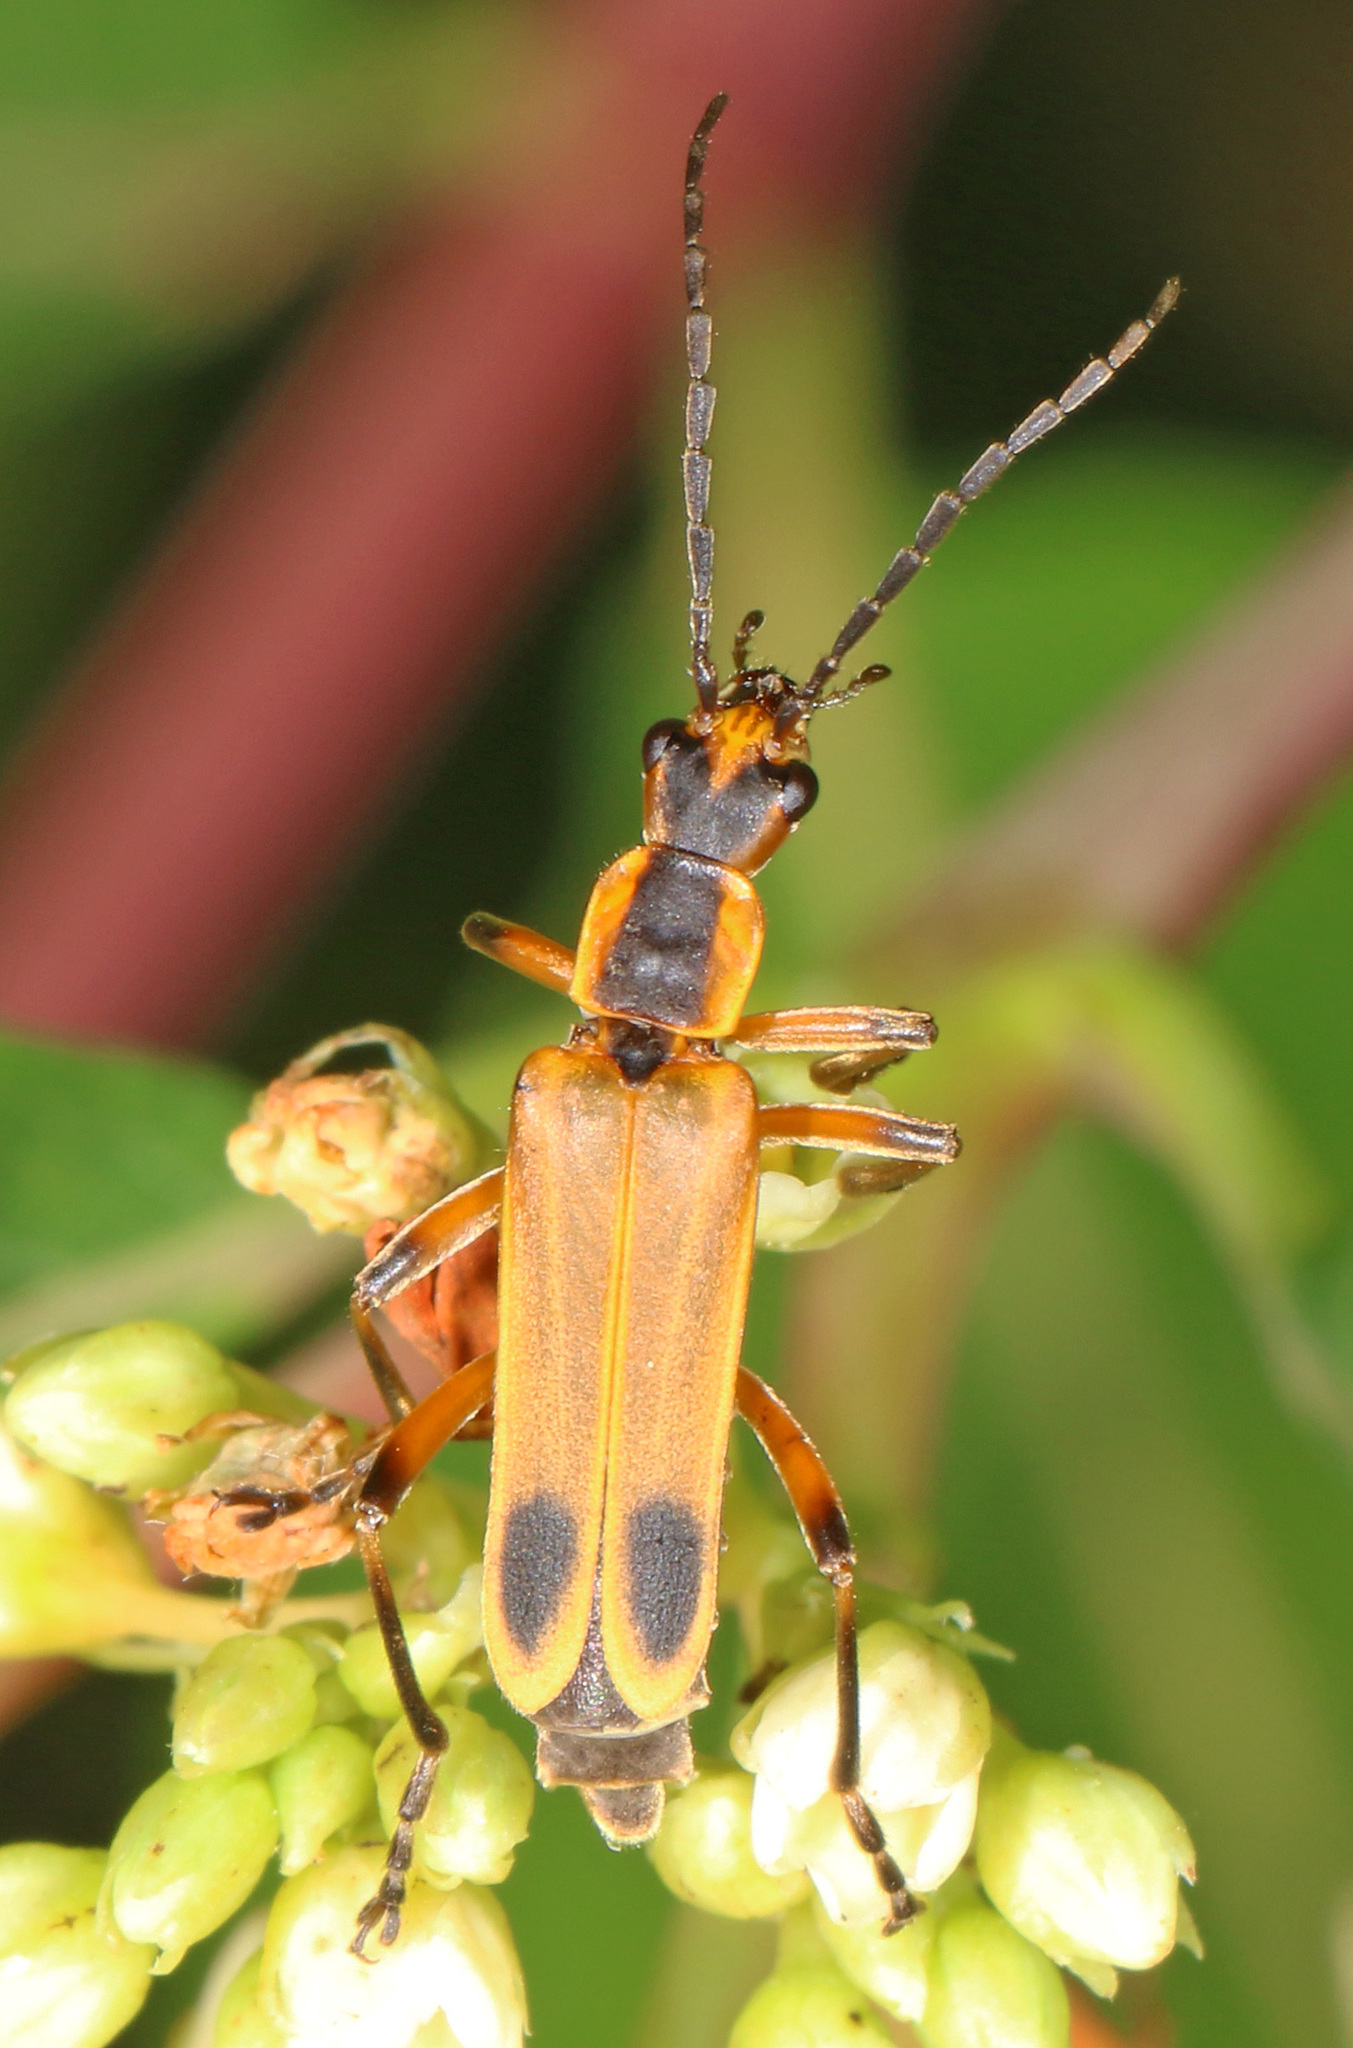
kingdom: Animalia
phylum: Arthropoda
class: Insecta
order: Coleoptera
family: Cantharidae
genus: Chauliognathus
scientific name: Chauliognathus marginatus
